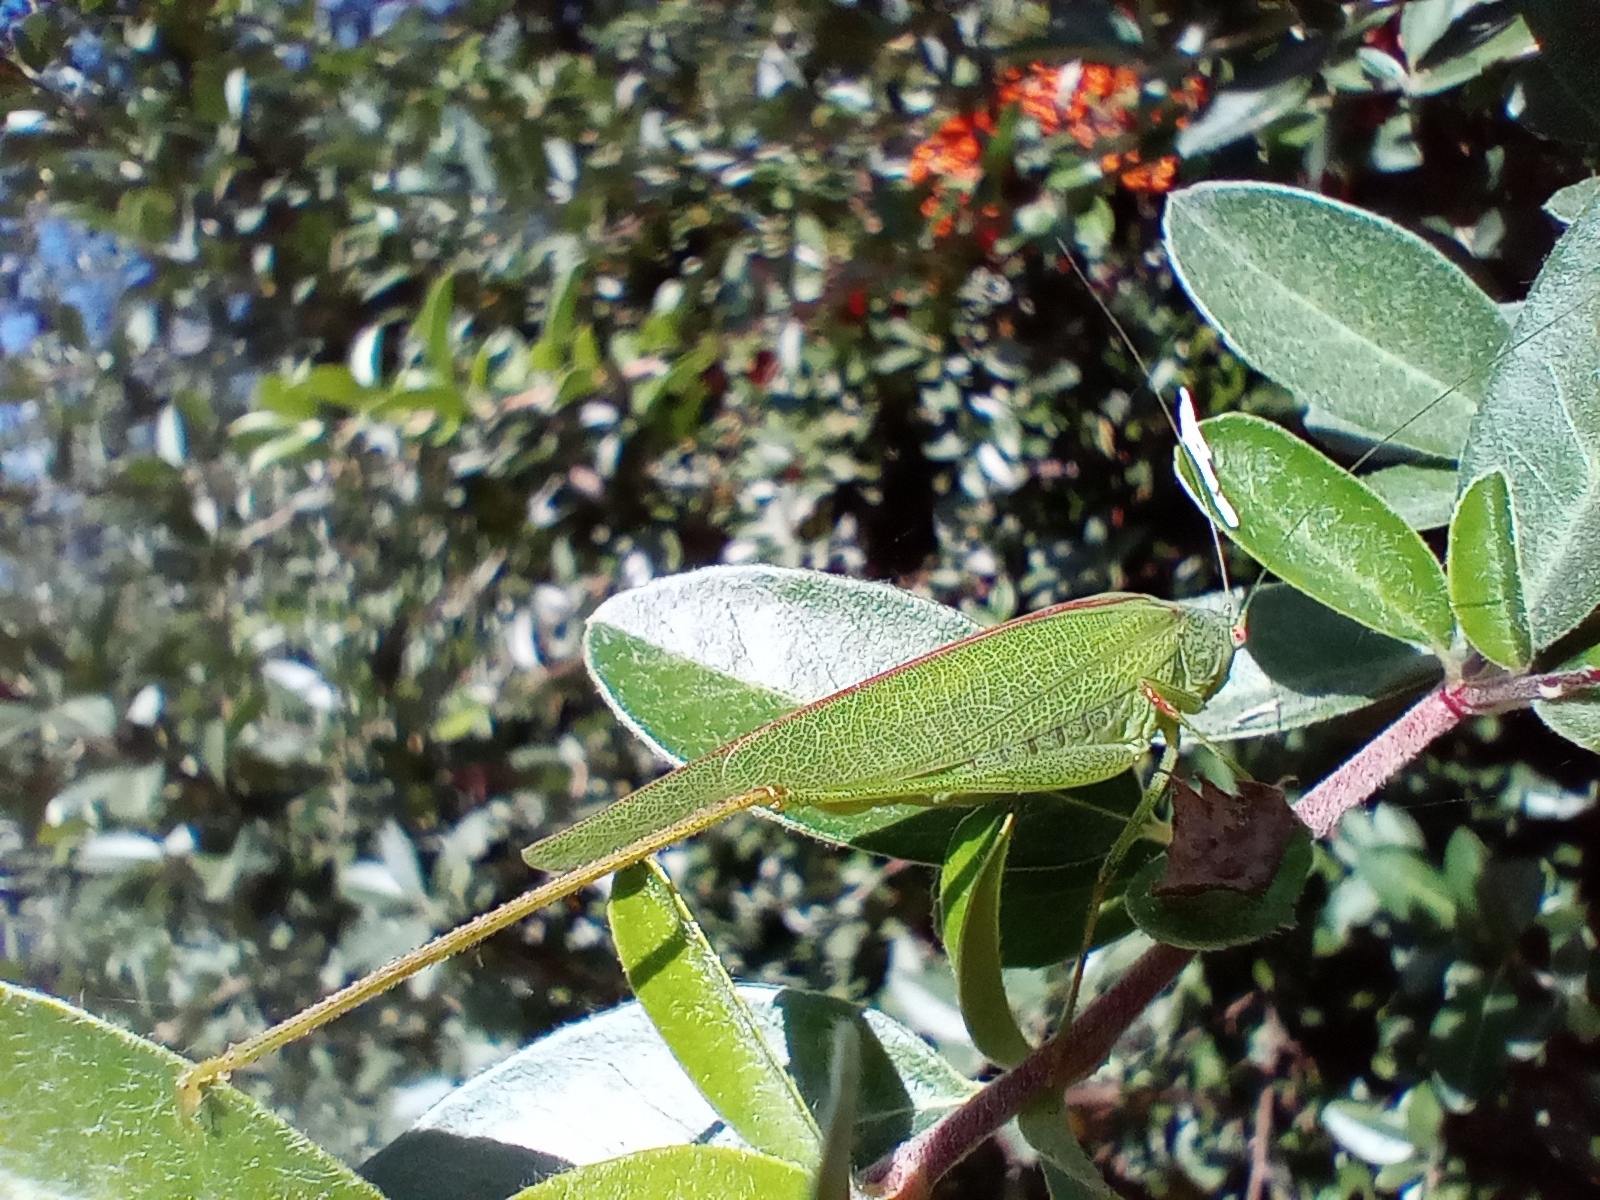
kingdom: Animalia
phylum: Arthropoda
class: Insecta
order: Orthoptera
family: Tettigoniidae
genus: Phaneroptera
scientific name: Phaneroptera nana
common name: Southern sickle bush-cricket
